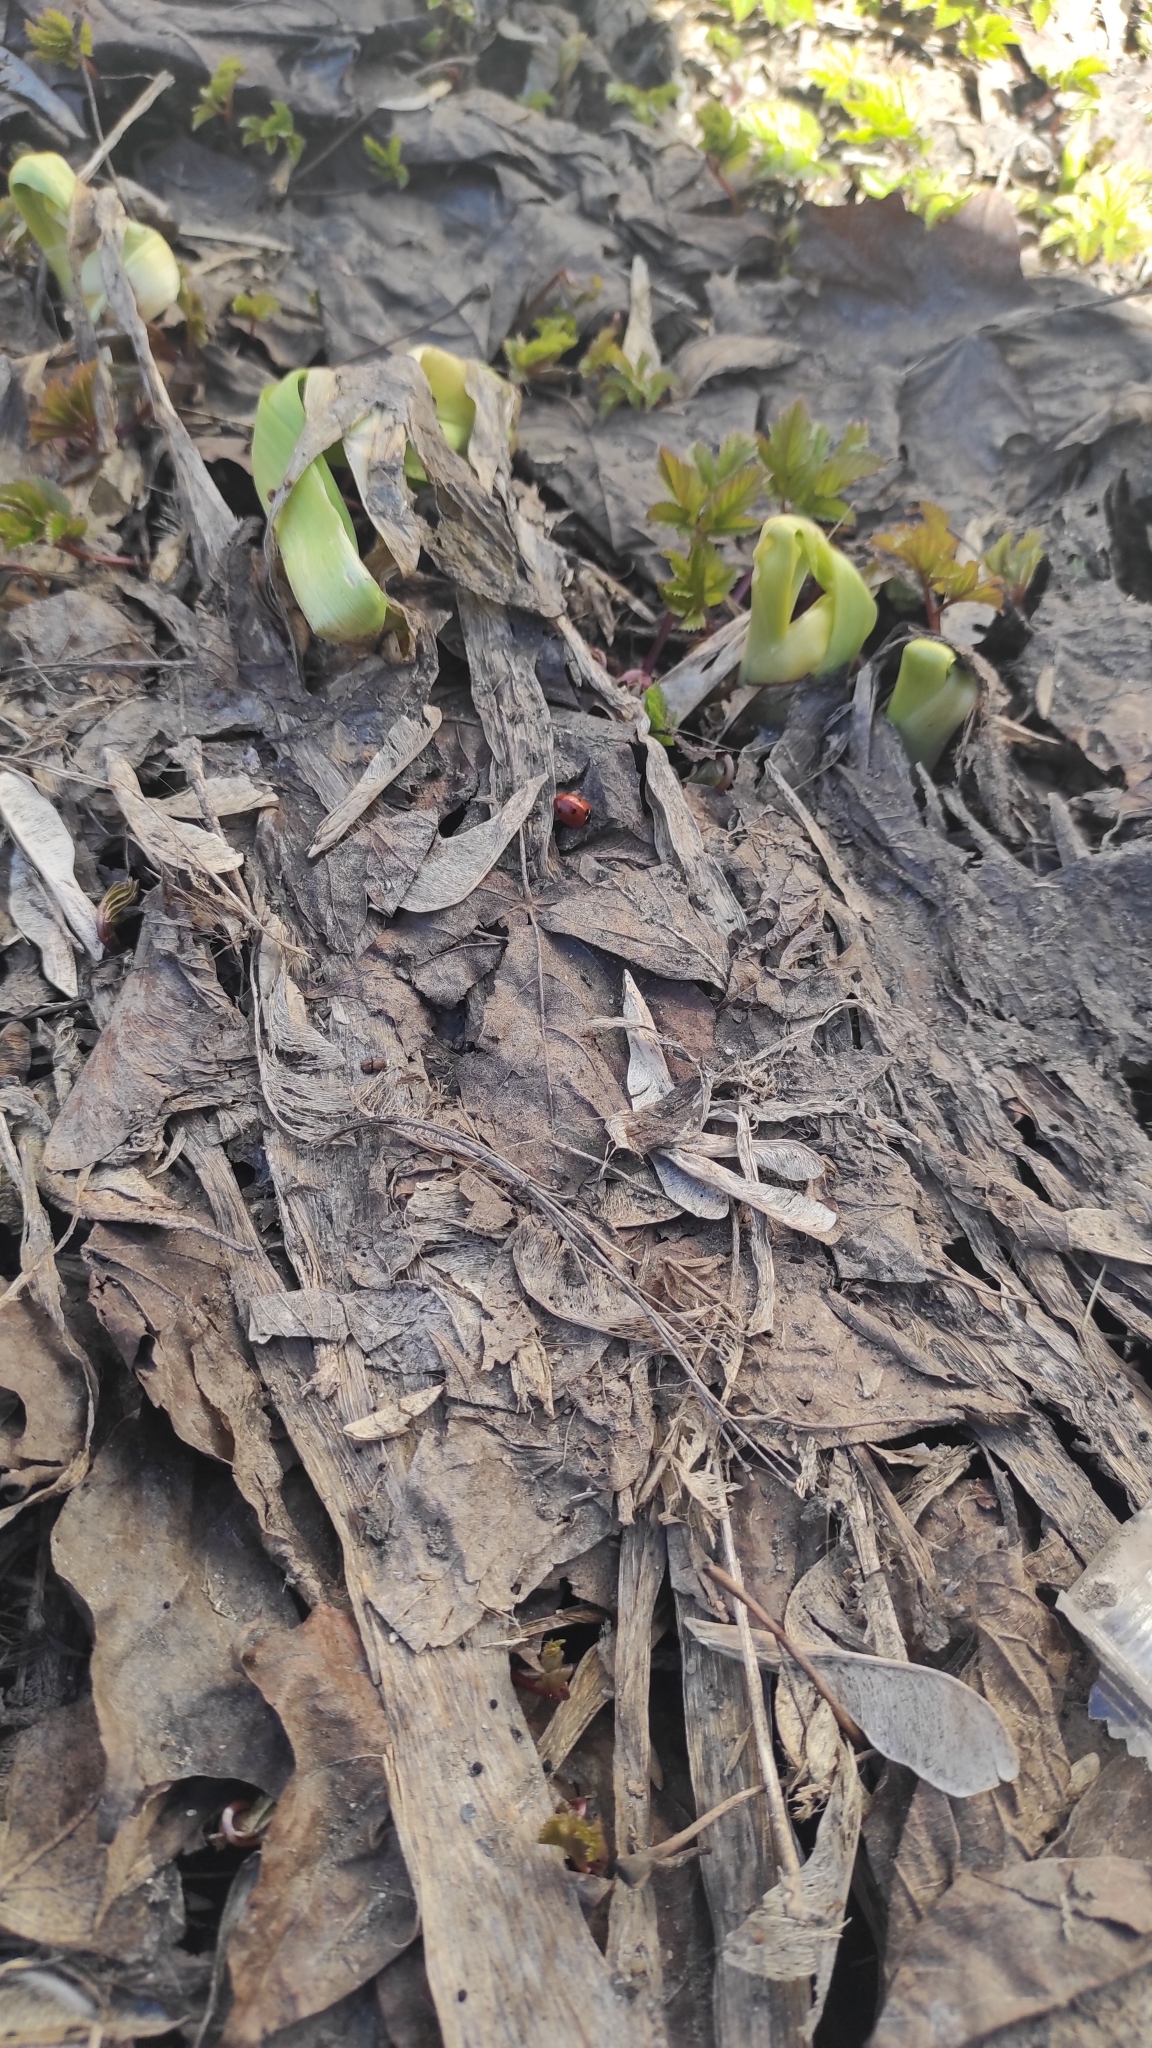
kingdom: Animalia
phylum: Arthropoda
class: Insecta
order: Coleoptera
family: Coccinellidae
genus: Coccinella
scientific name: Coccinella septempunctata
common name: Sevenspotted lady beetle
